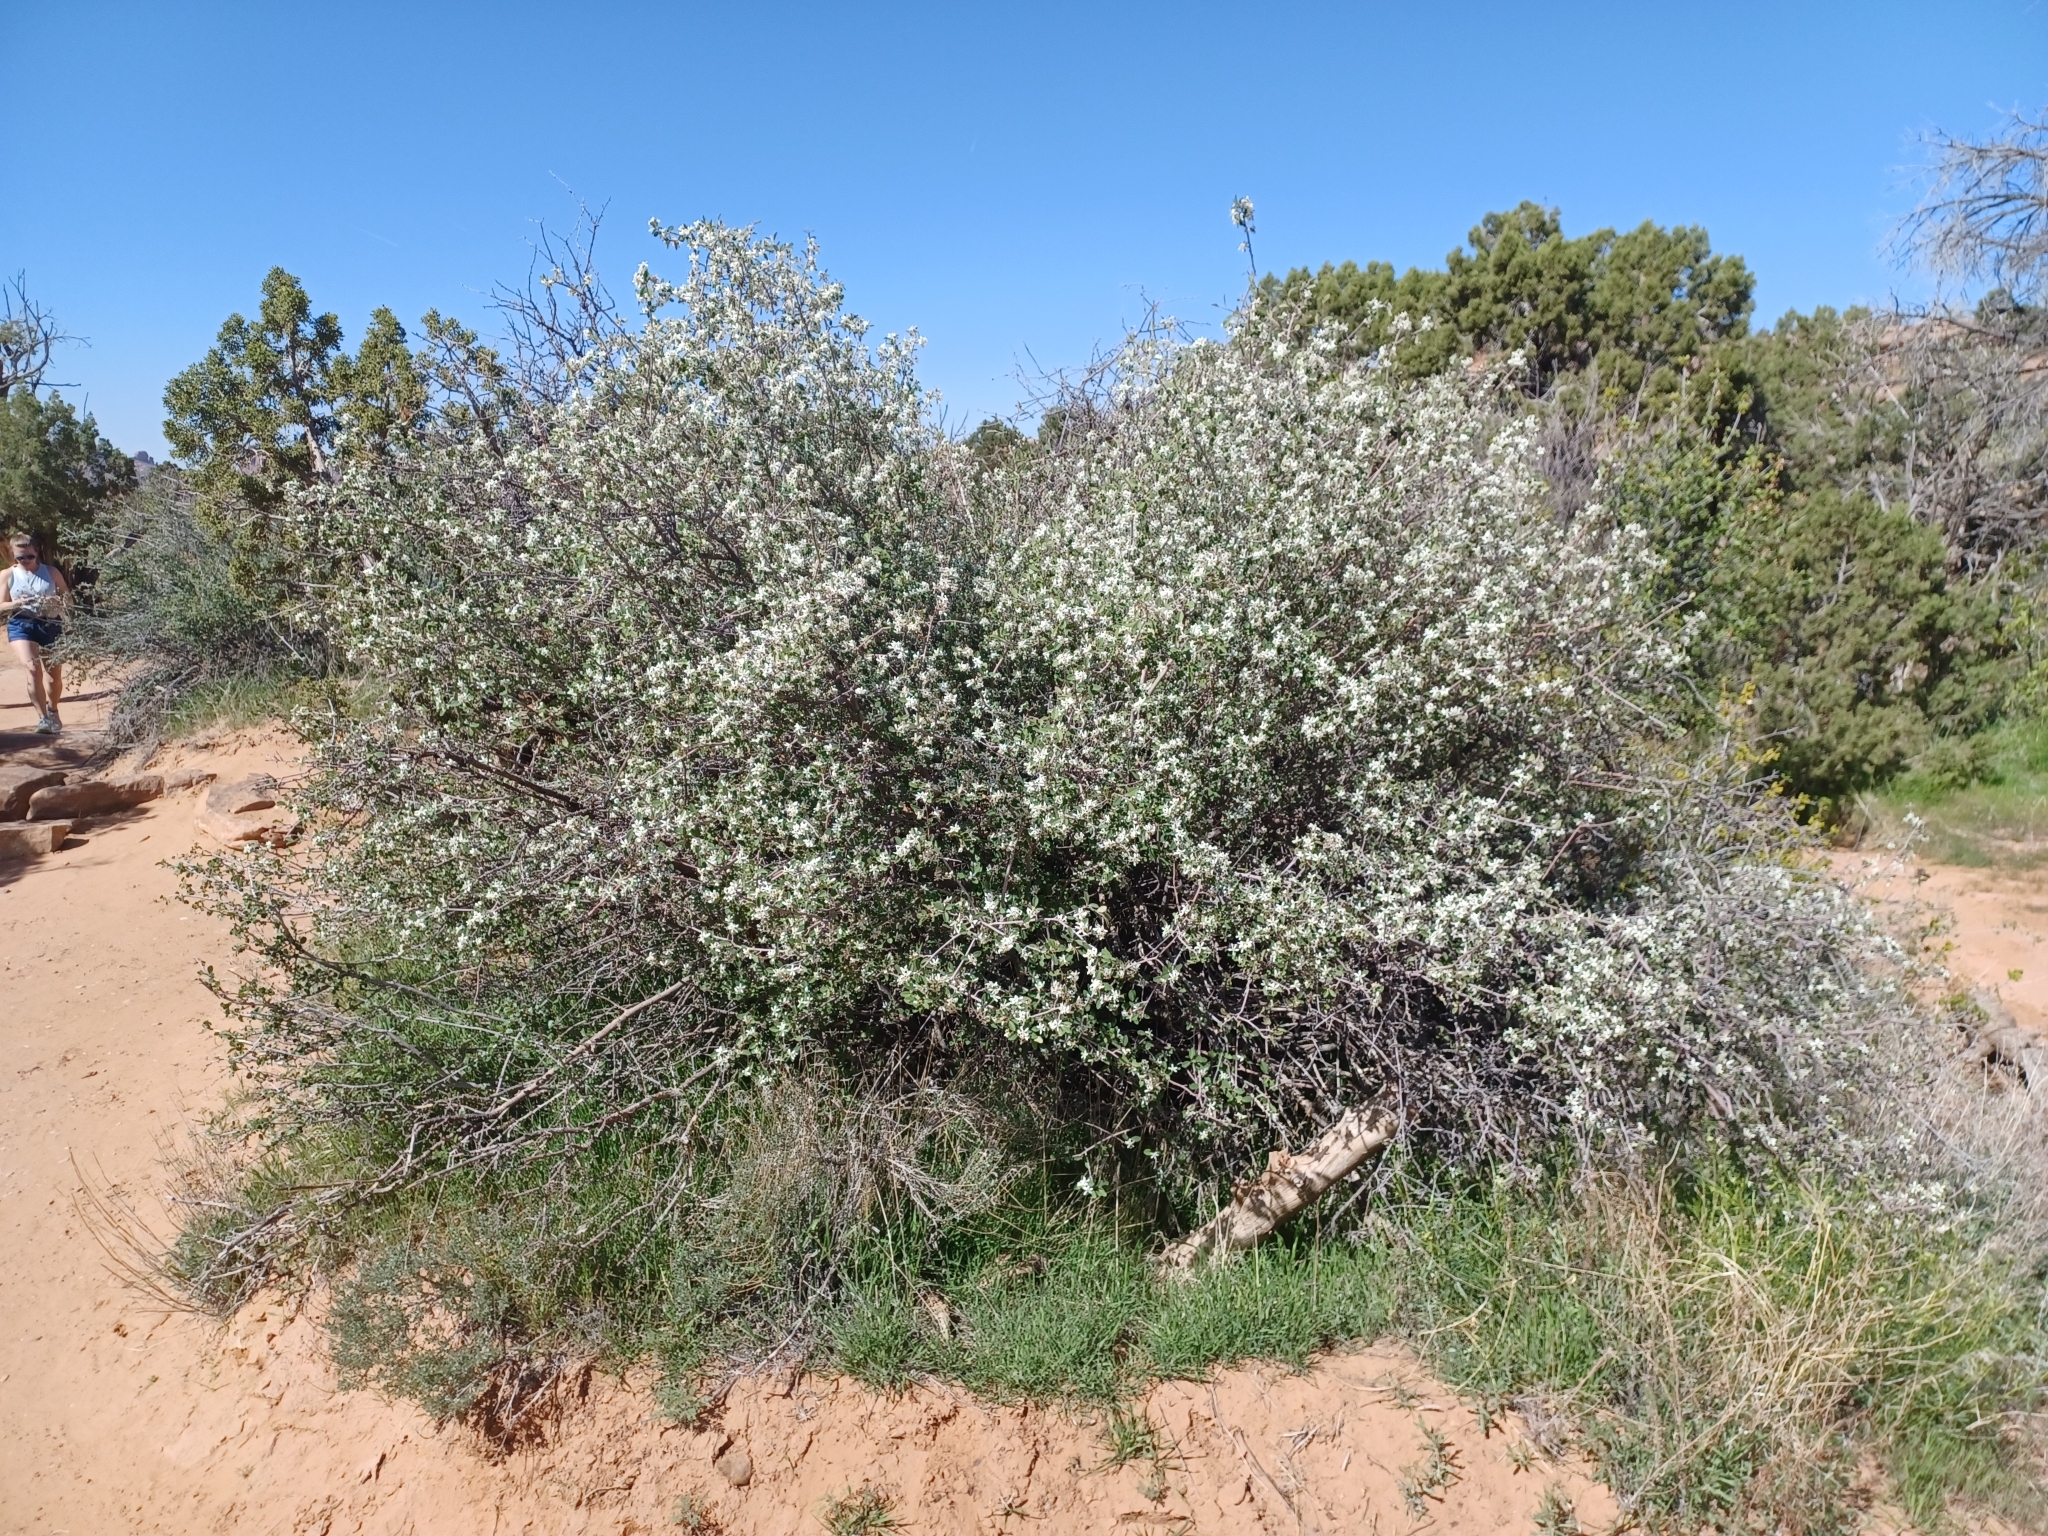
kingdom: Plantae
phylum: Tracheophyta
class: Magnoliopsida
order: Rosales
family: Rosaceae
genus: Amelanchier
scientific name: Amelanchier utahensis
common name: Utah serviceberry
